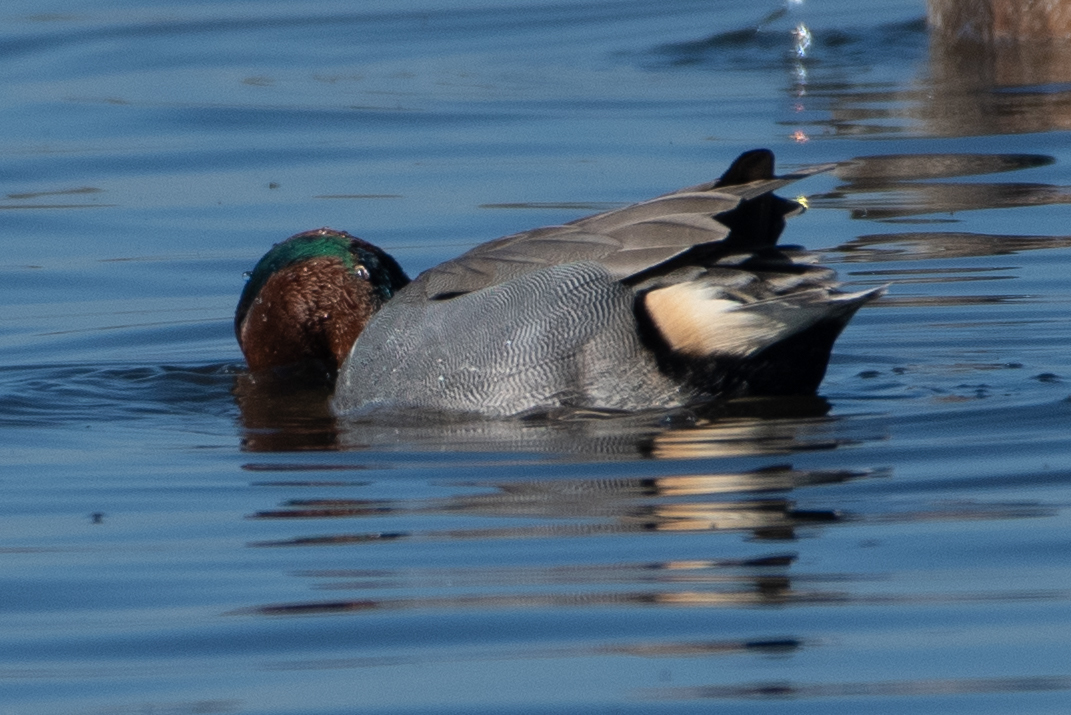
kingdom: Animalia
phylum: Chordata
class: Aves
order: Anseriformes
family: Anatidae
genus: Anas
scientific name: Anas crecca
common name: Eurasian teal
